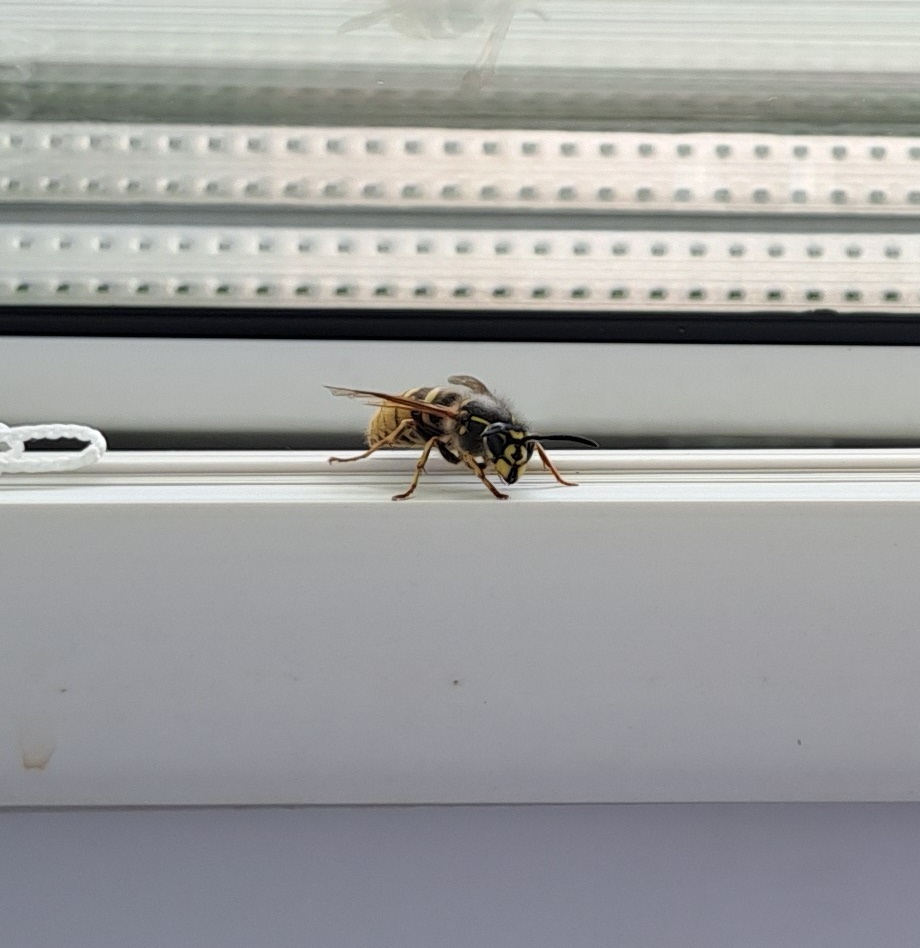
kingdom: Animalia
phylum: Arthropoda
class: Insecta
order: Hymenoptera
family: Vespidae
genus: Vespula
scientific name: Vespula vulgaris
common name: Common wasp
